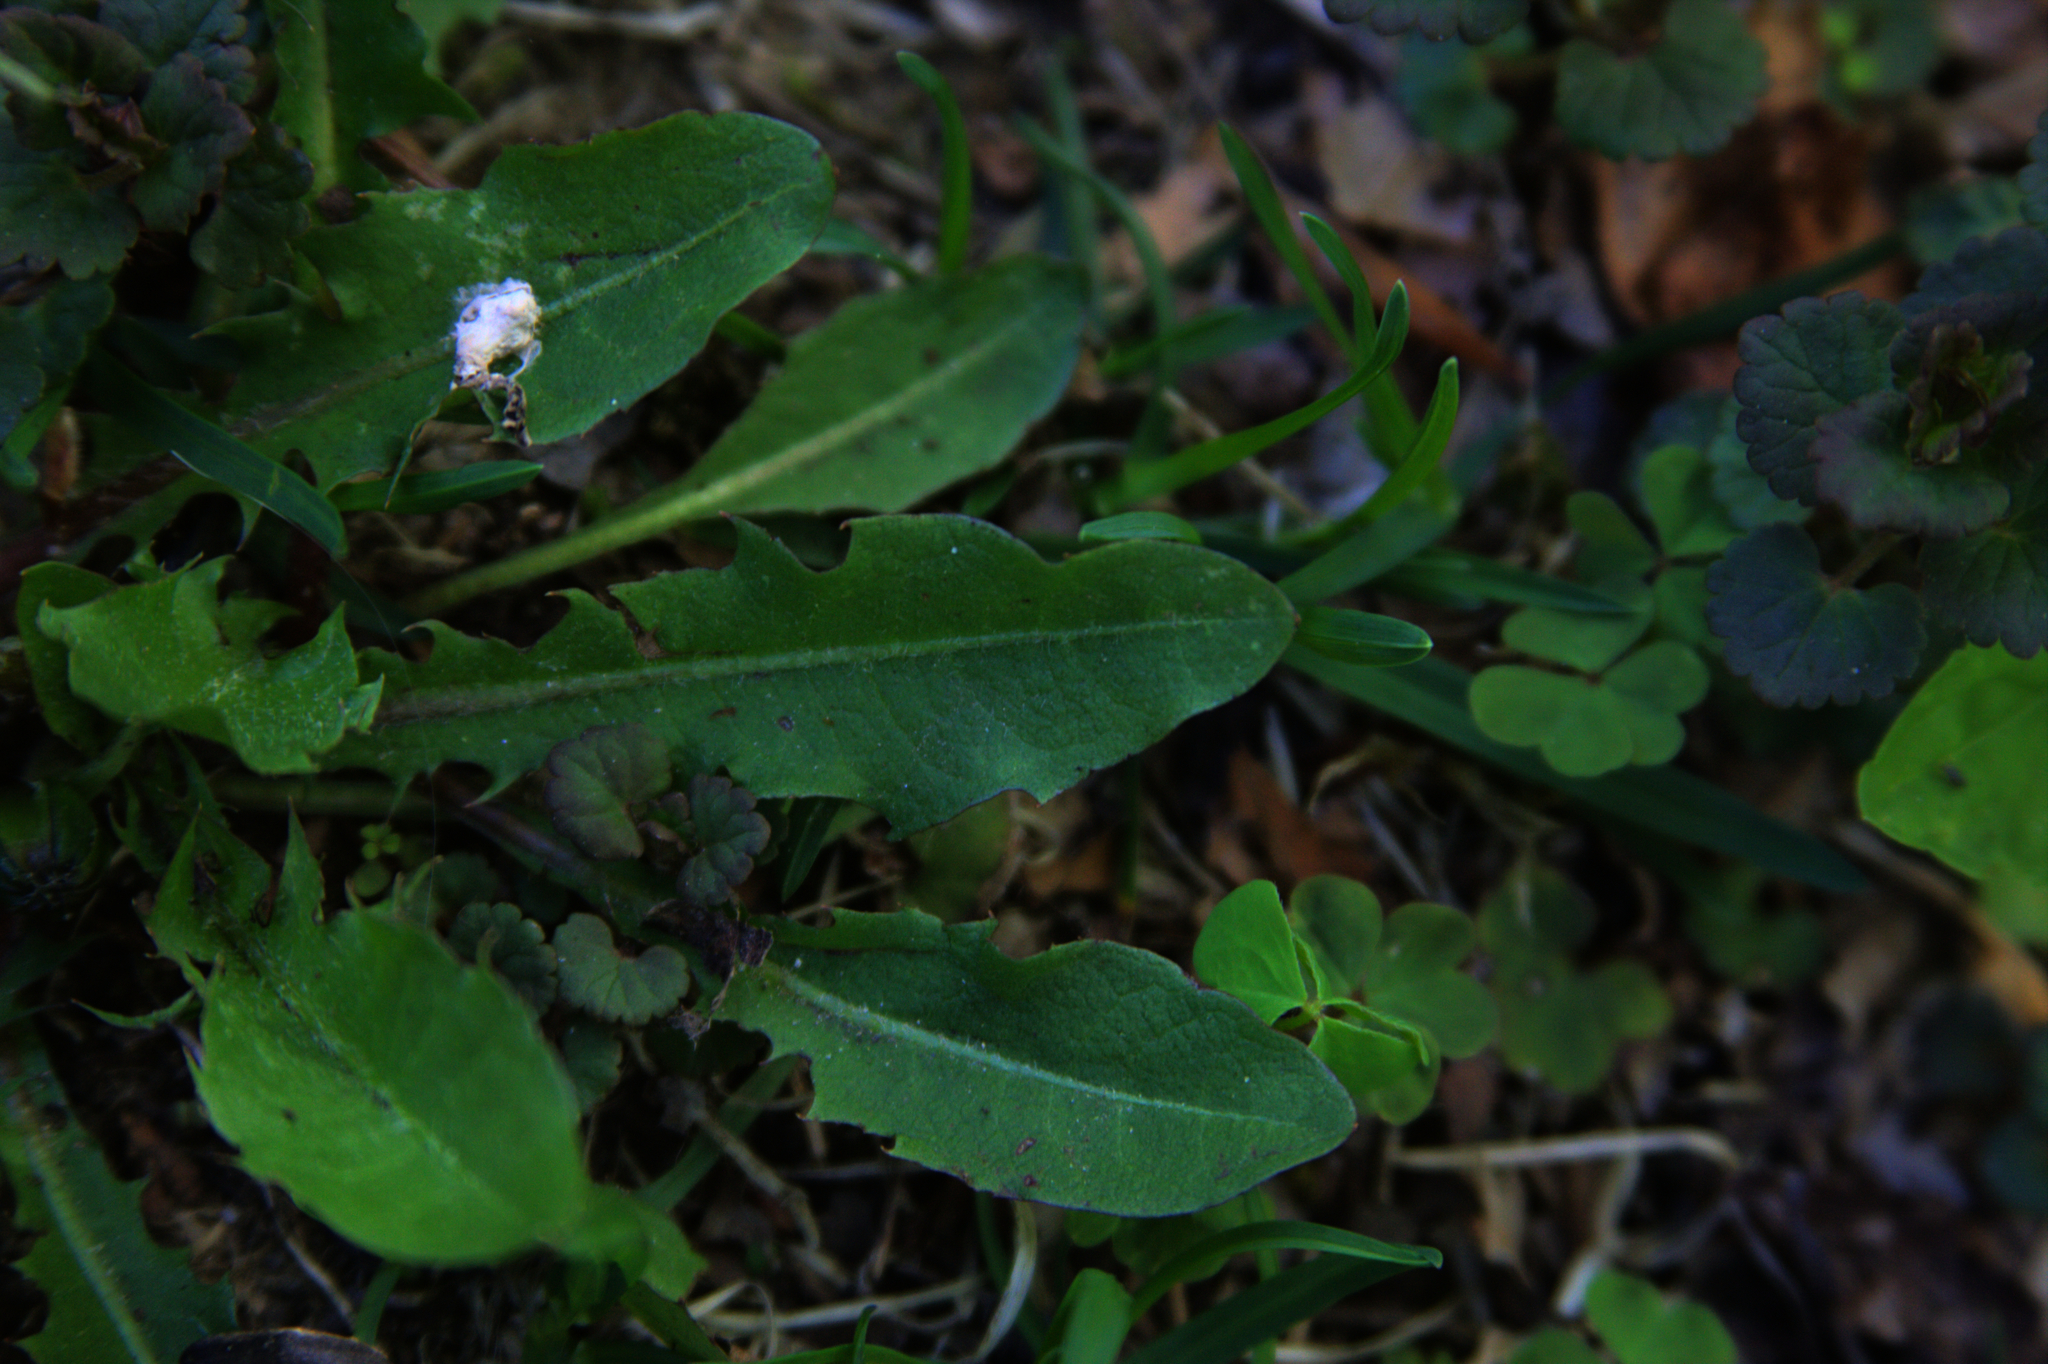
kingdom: Plantae
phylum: Tracheophyta
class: Magnoliopsida
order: Asterales
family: Asteraceae
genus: Taraxacum
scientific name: Taraxacum officinale
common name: Common dandelion
